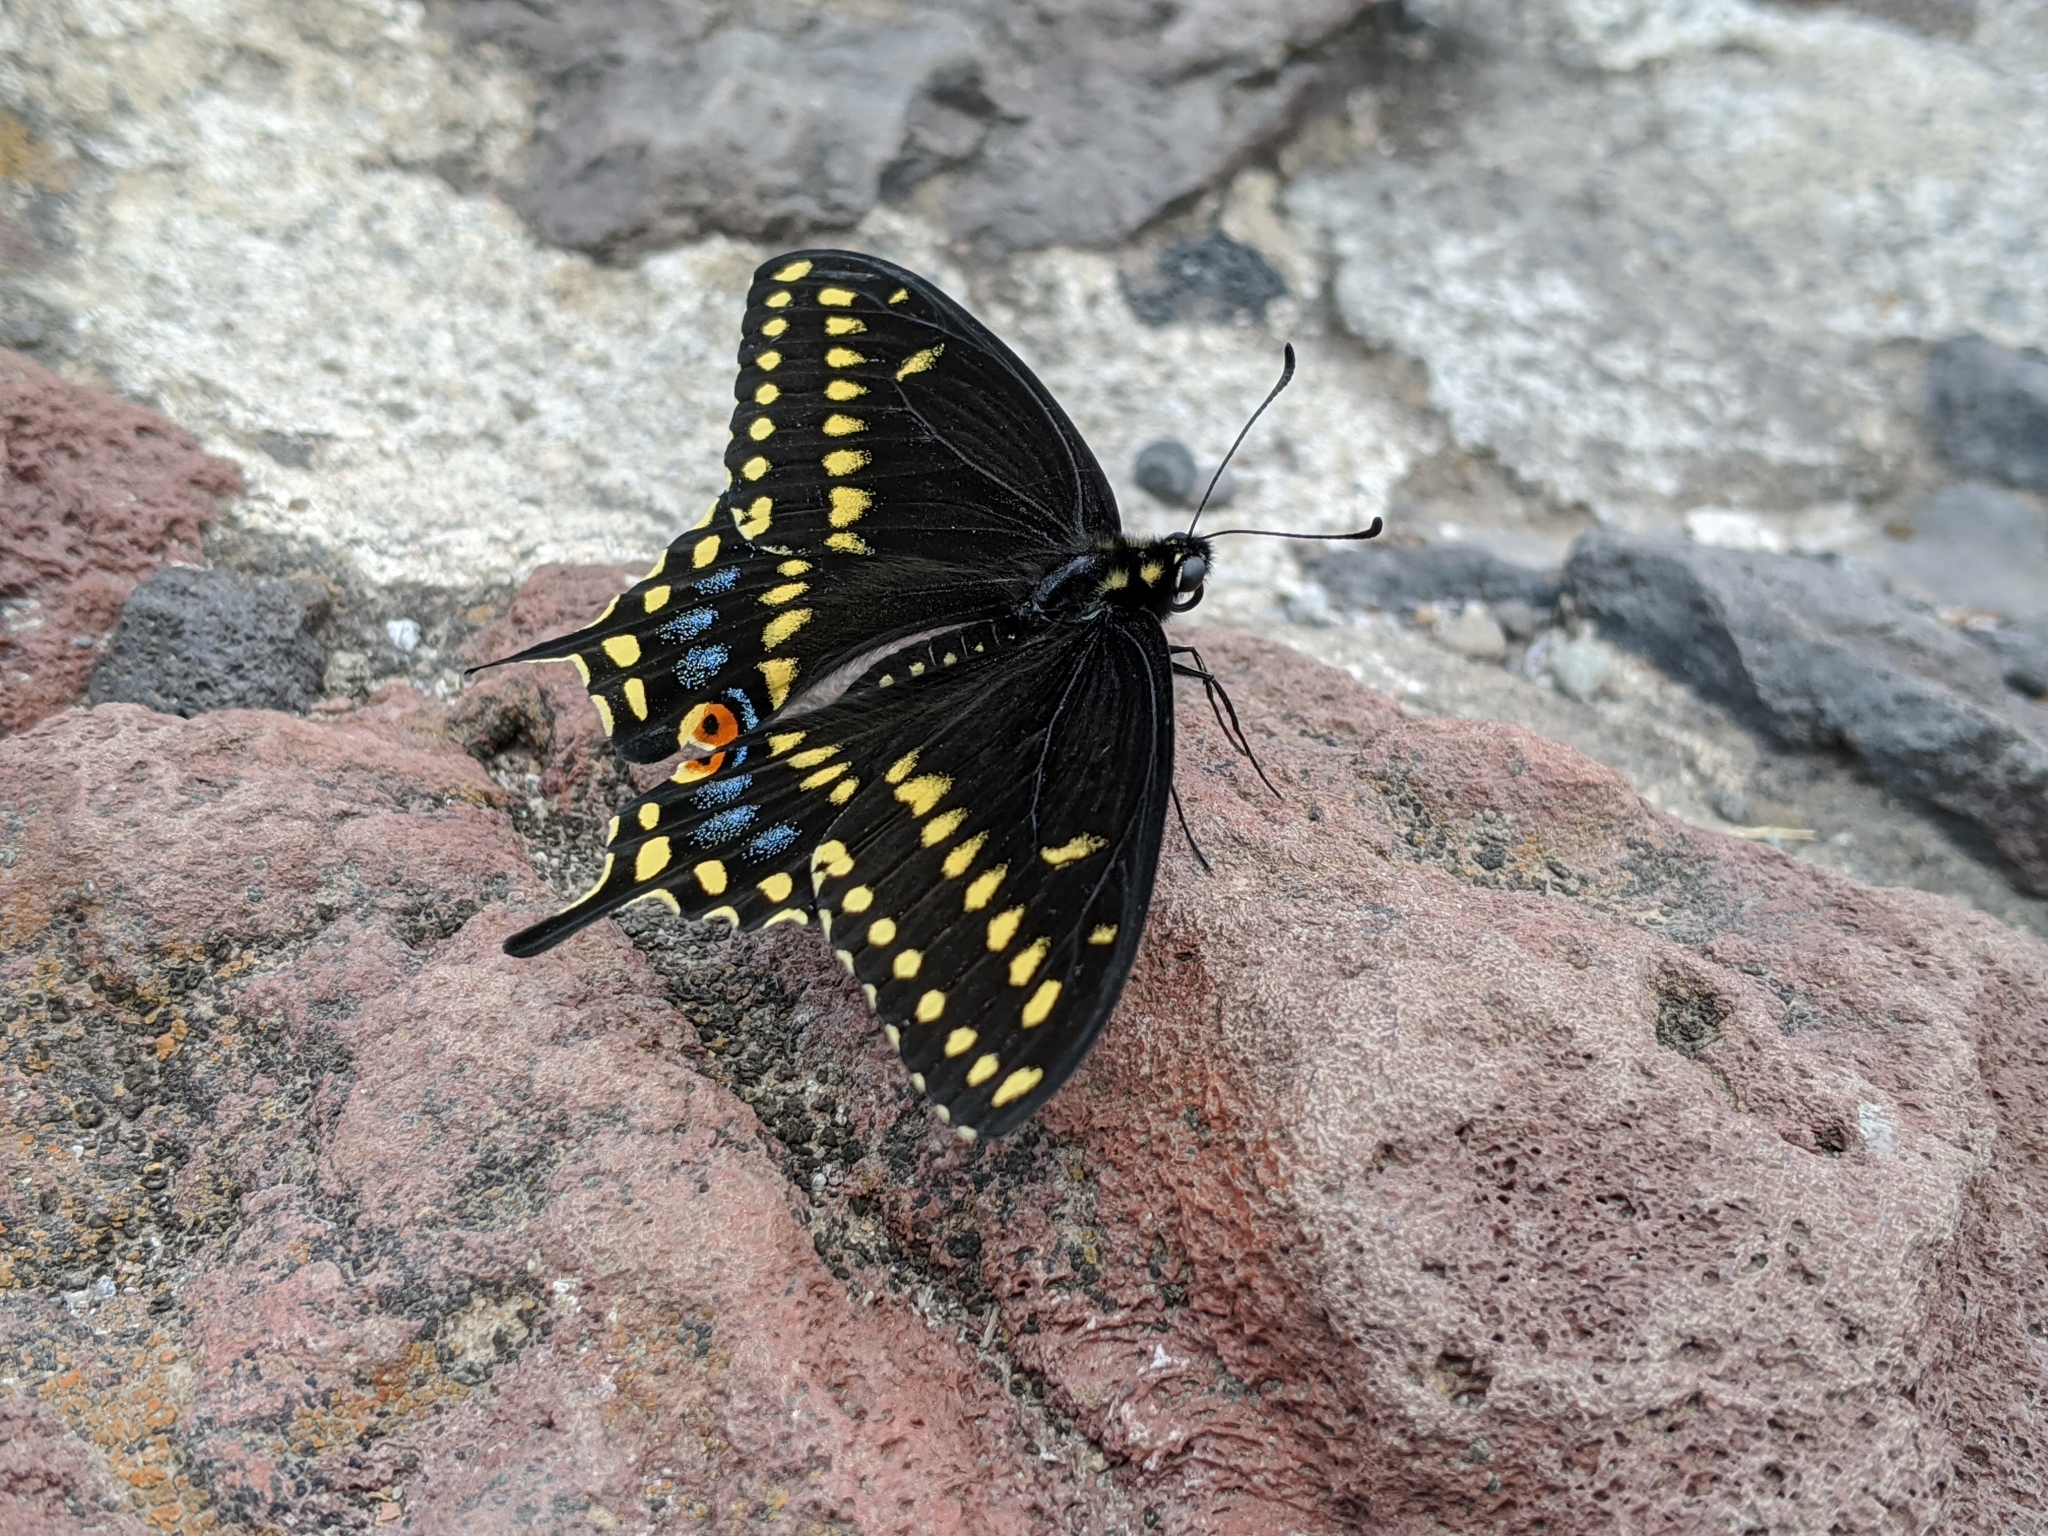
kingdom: Animalia
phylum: Arthropoda
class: Insecta
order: Lepidoptera
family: Papilionidae
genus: Papilio
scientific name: Papilio polyxenes
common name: Black swallowtail
